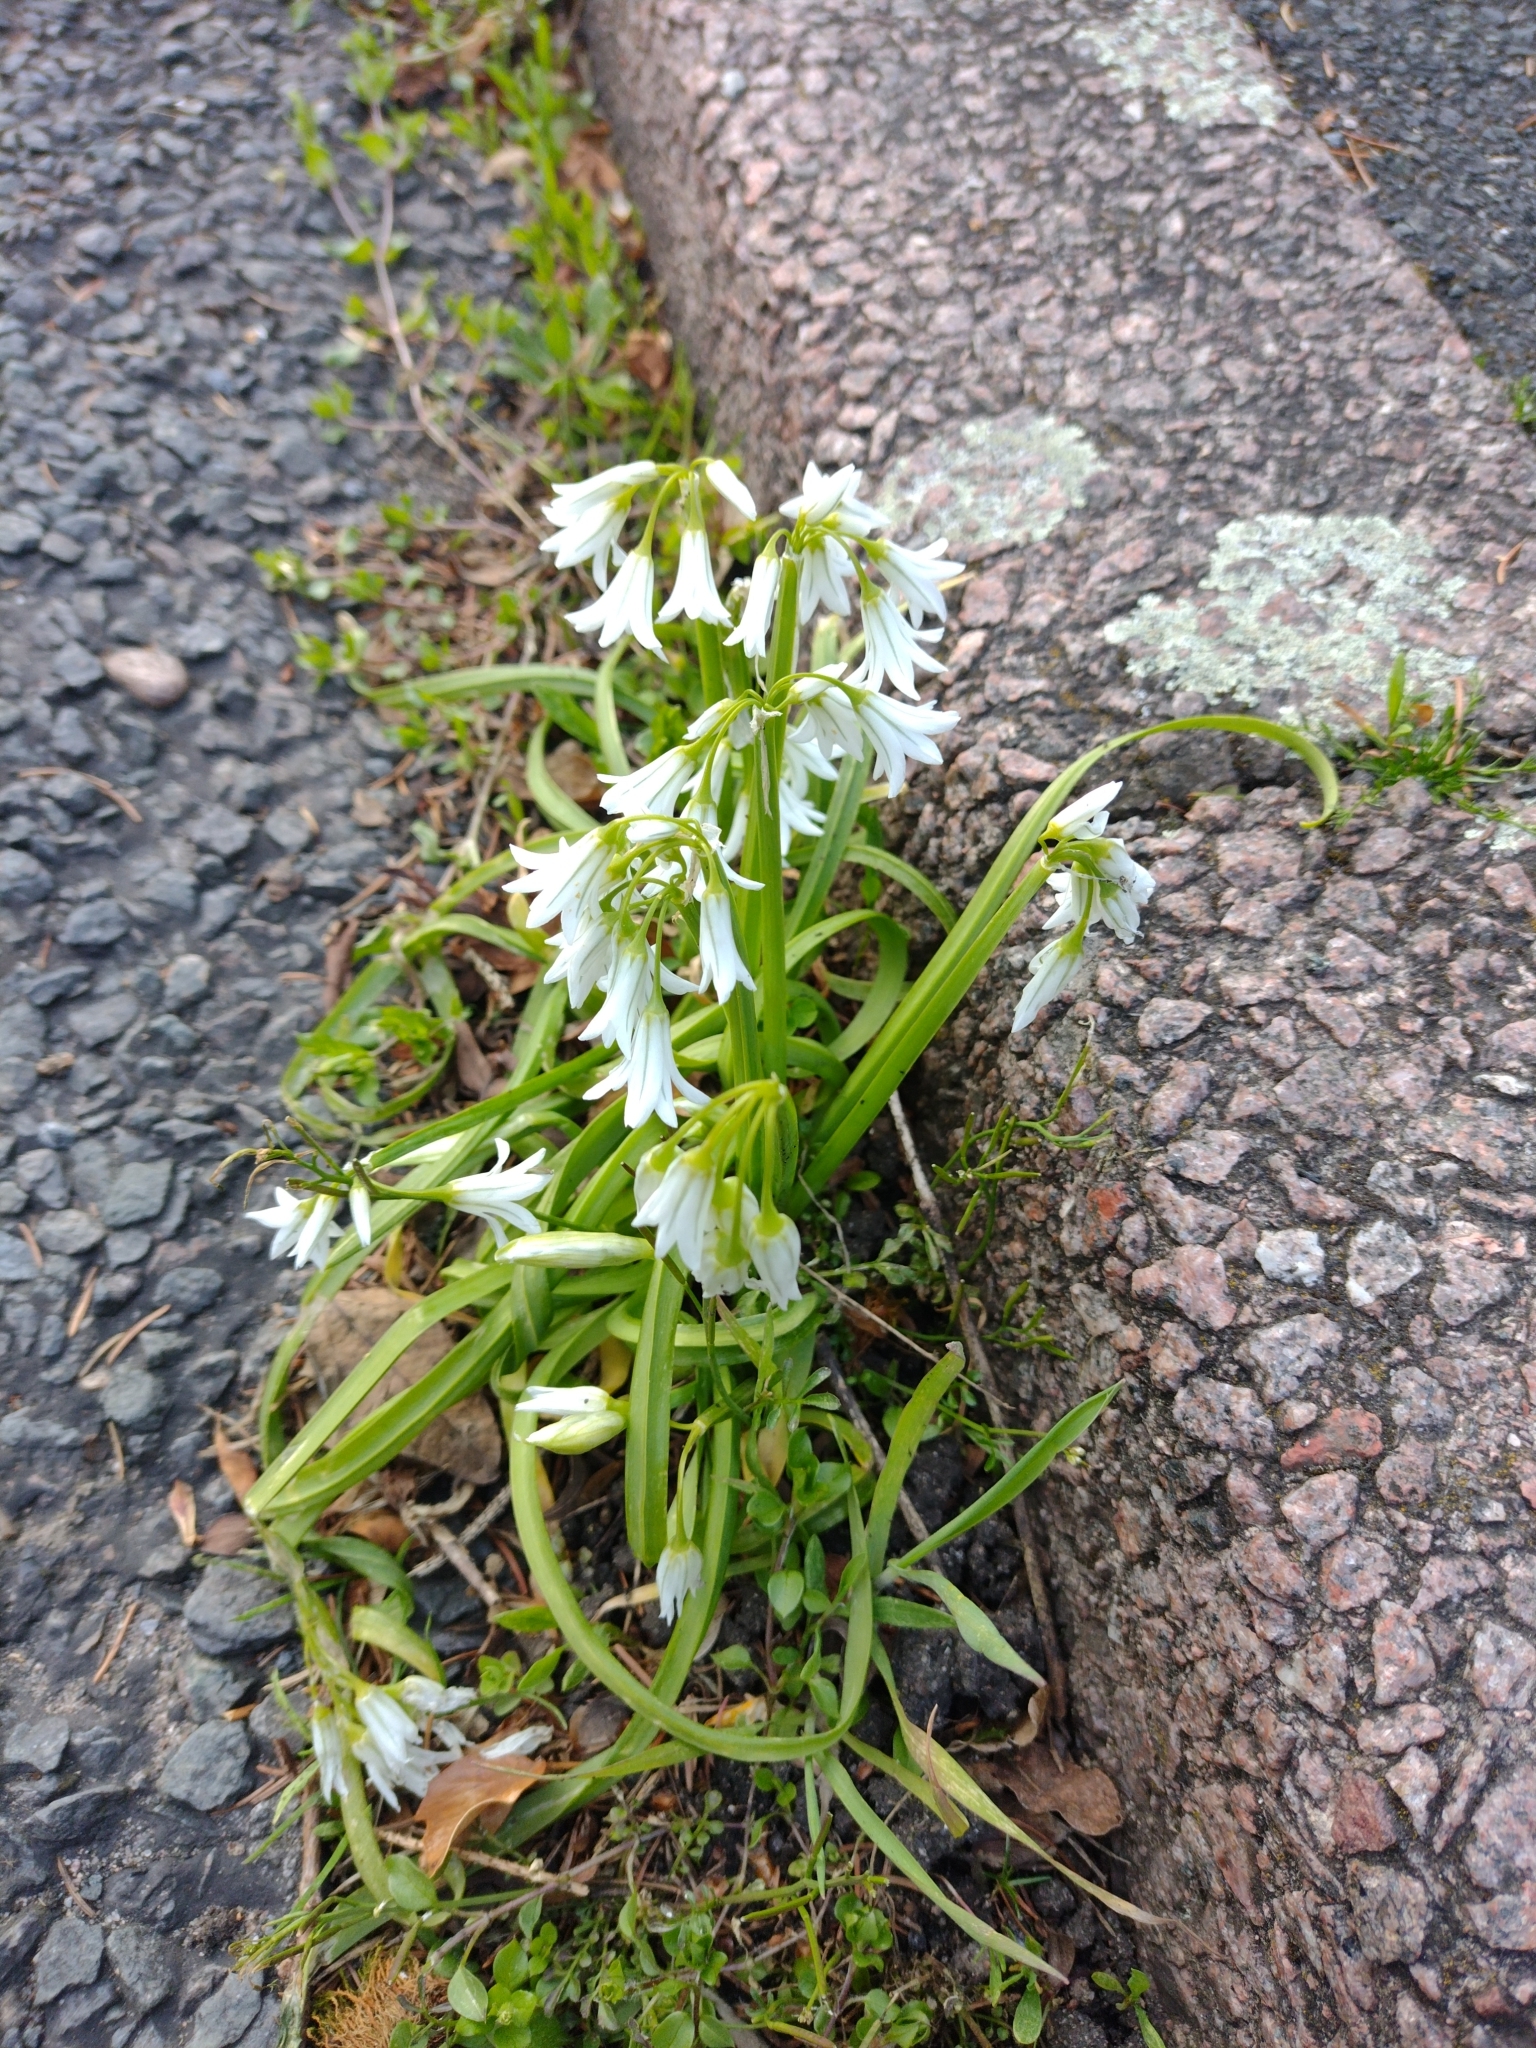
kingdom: Plantae
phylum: Tracheophyta
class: Liliopsida
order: Asparagales
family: Amaryllidaceae
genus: Allium
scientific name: Allium triquetrum
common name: Three-cornered garlic
